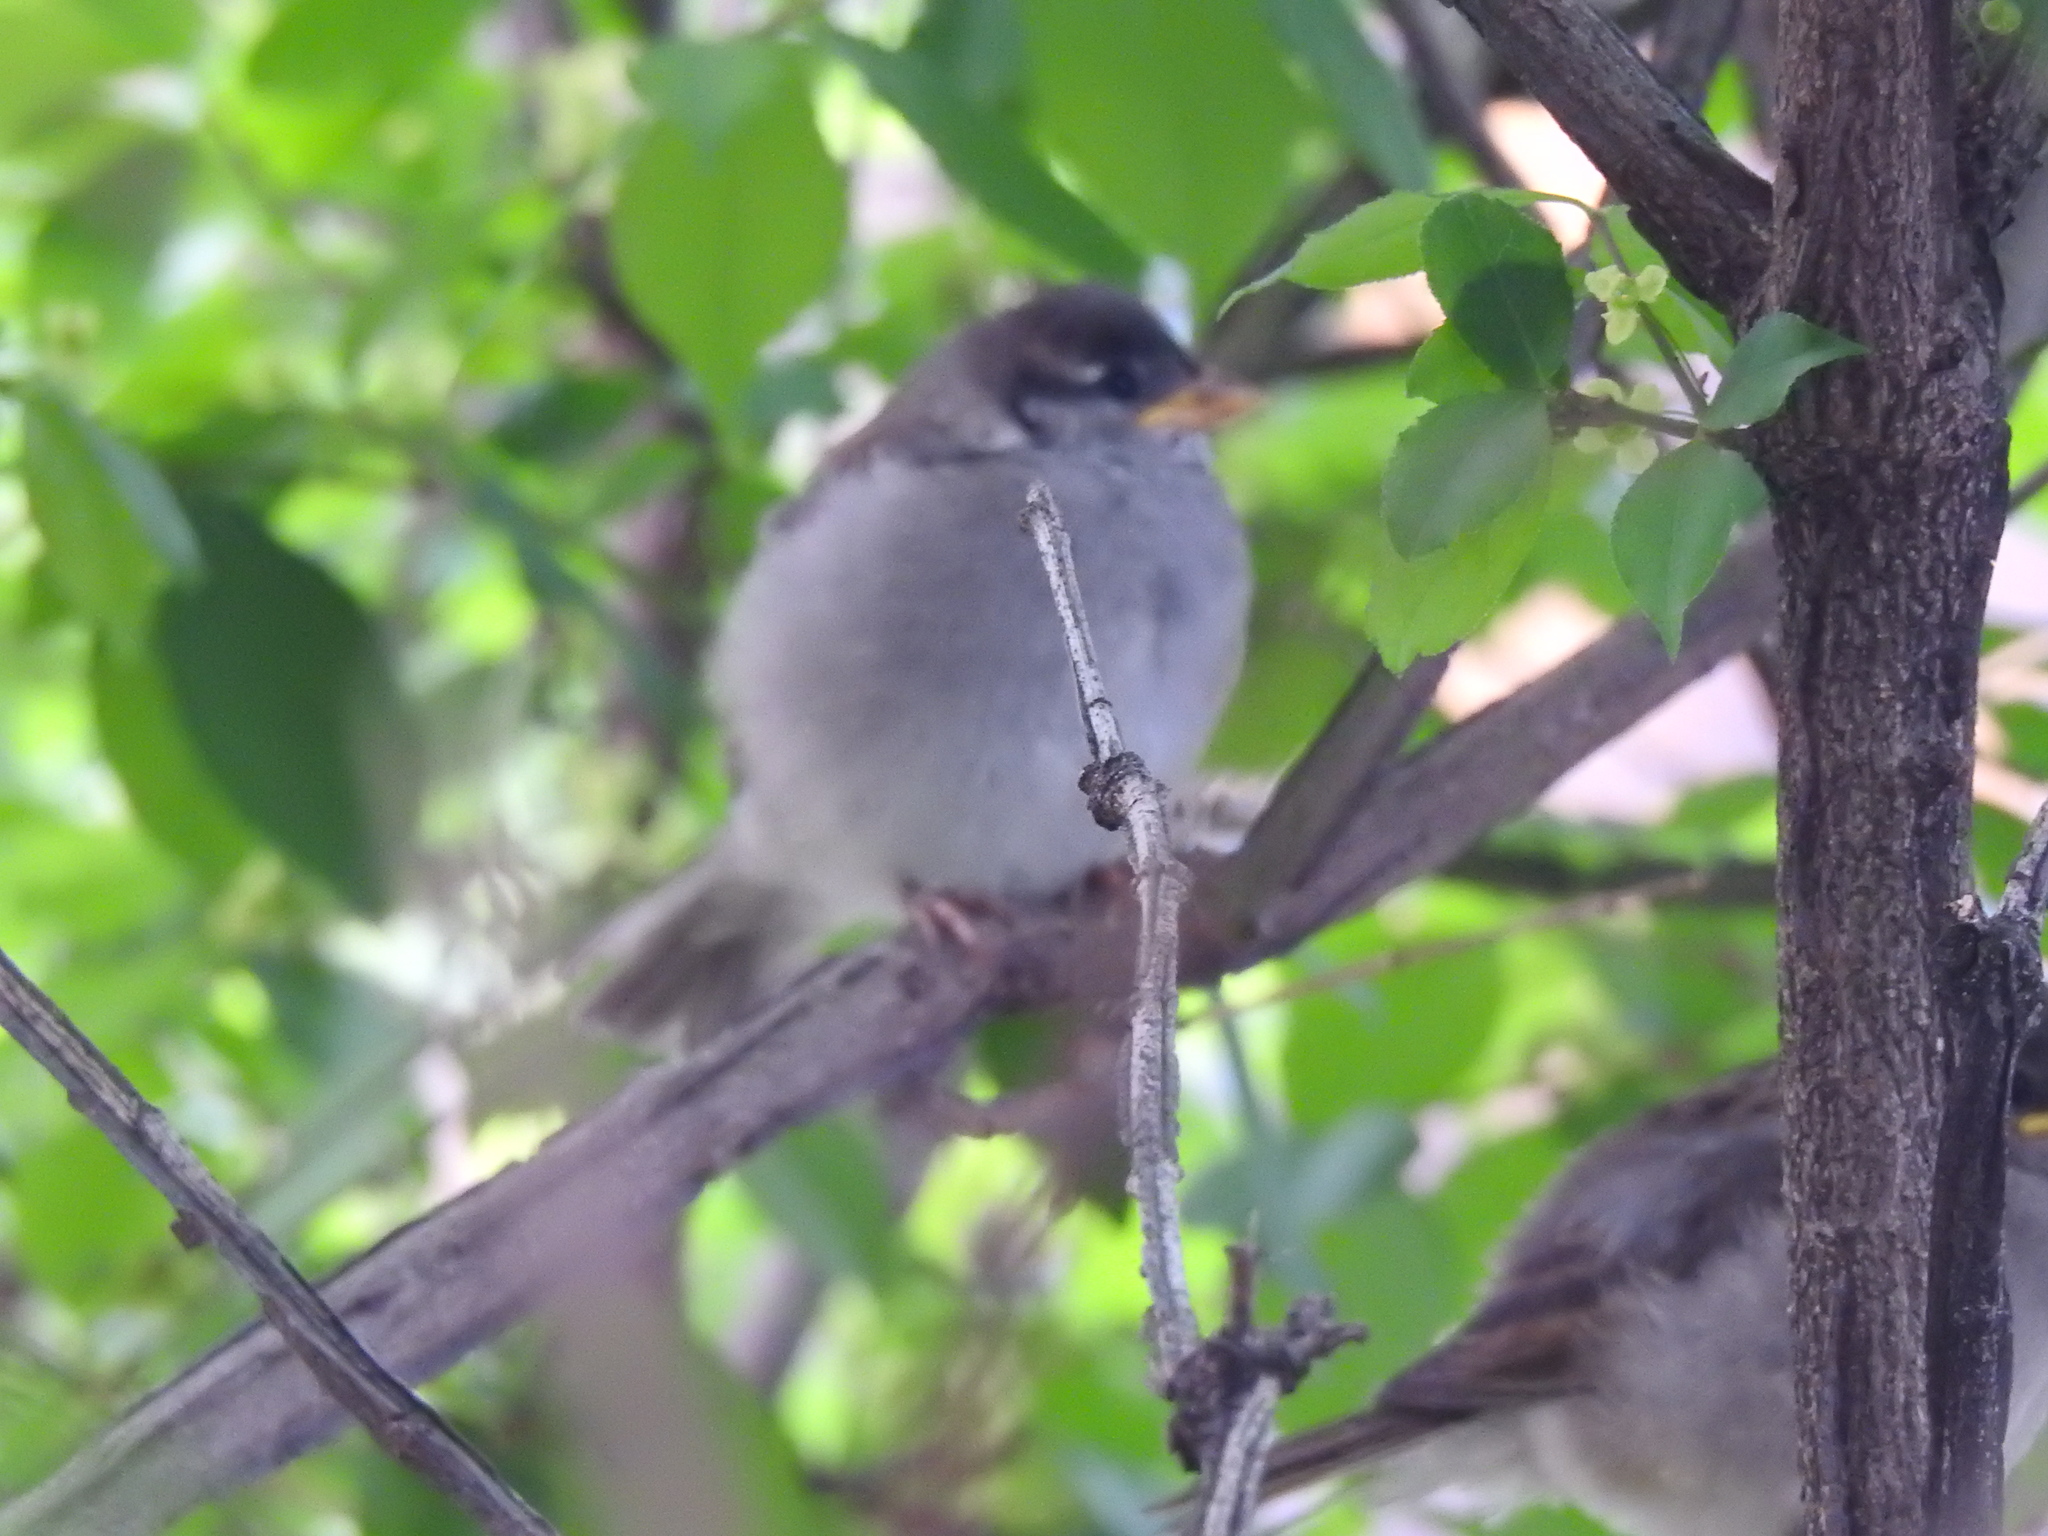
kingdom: Animalia
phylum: Chordata
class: Aves
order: Passeriformes
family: Passeridae
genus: Passer
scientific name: Passer domesticus
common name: House sparrow
